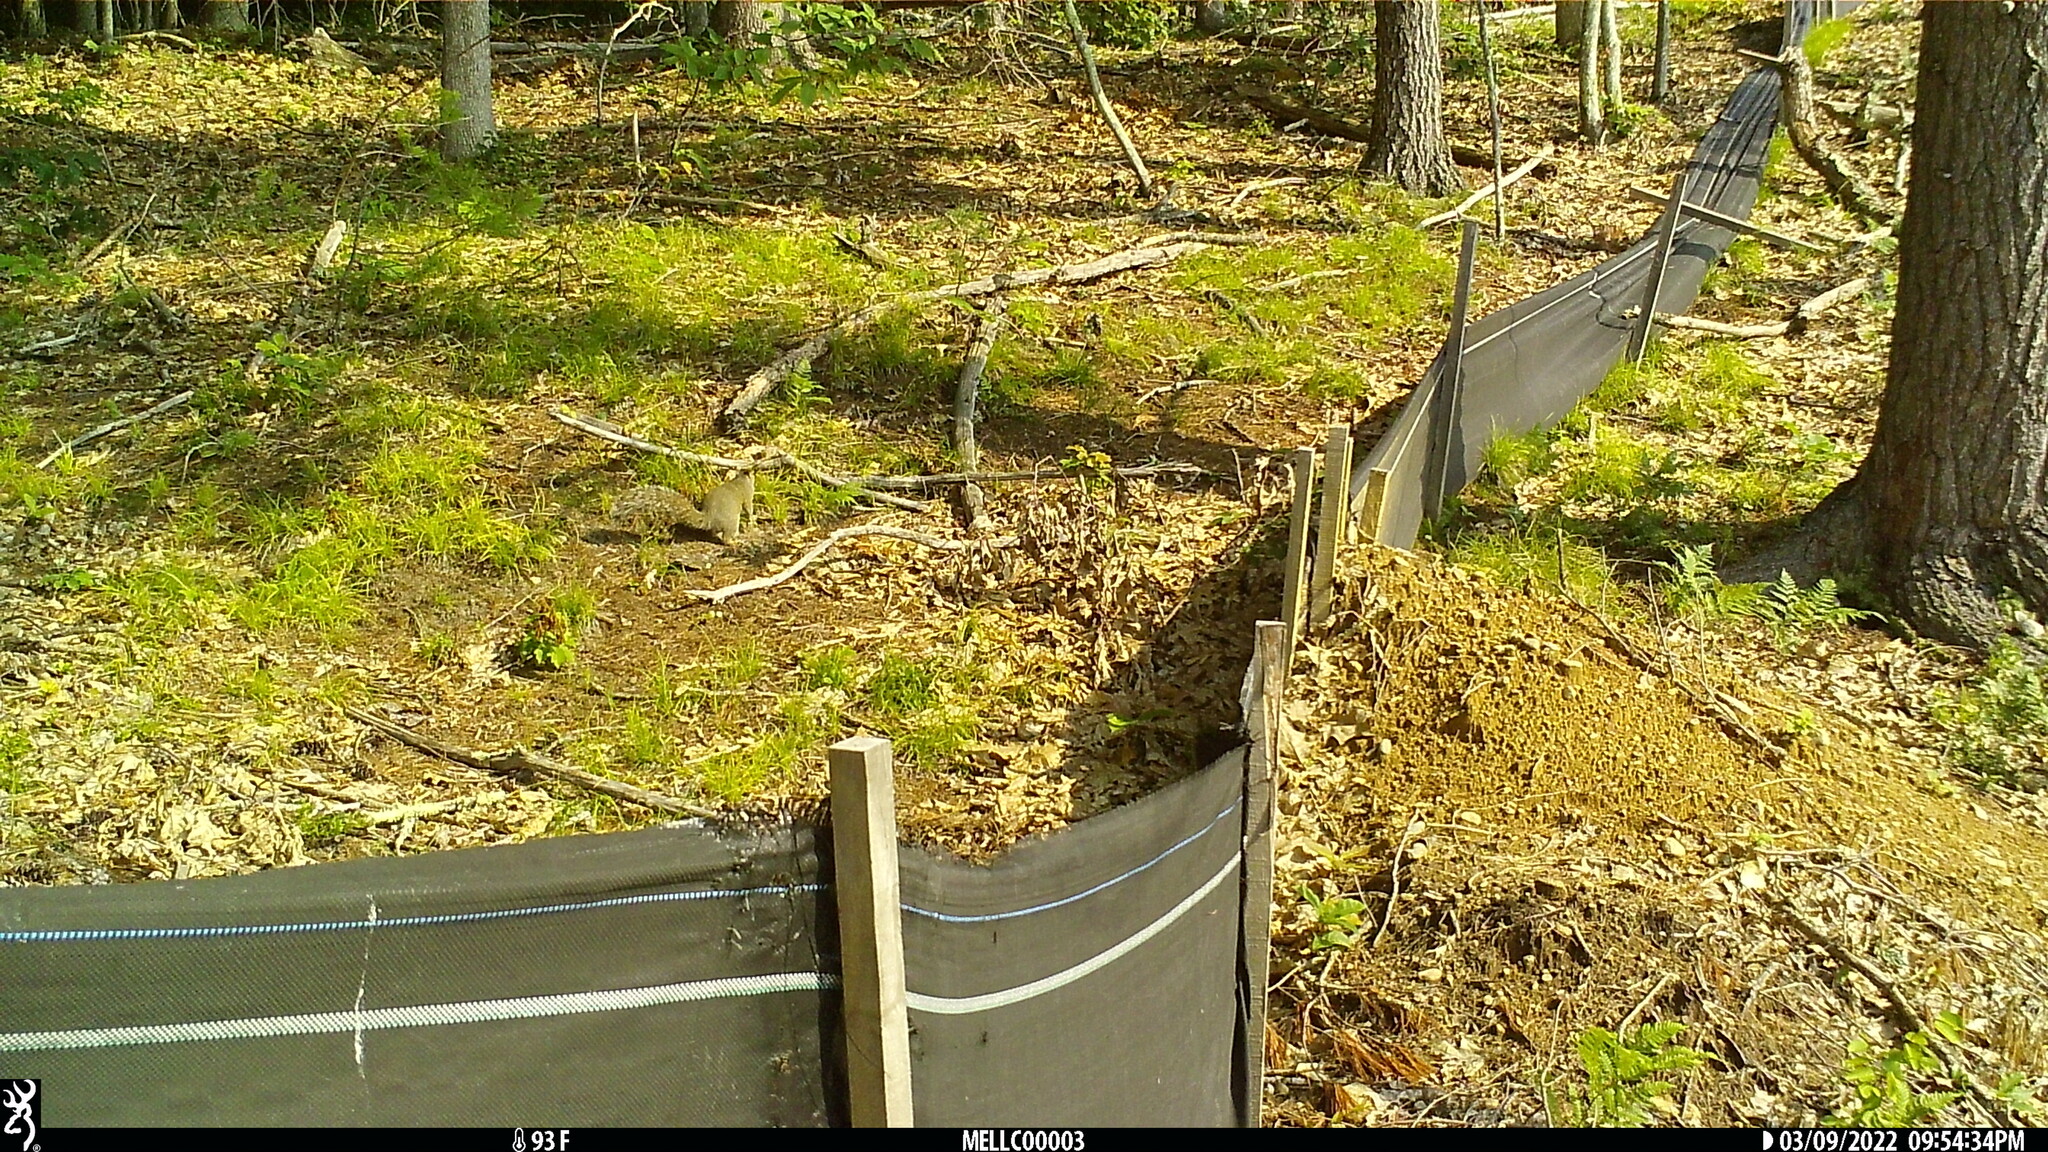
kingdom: Animalia
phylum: Chordata
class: Mammalia
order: Rodentia
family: Sciuridae
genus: Sciurus
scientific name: Sciurus carolinensis
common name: Eastern gray squirrel
